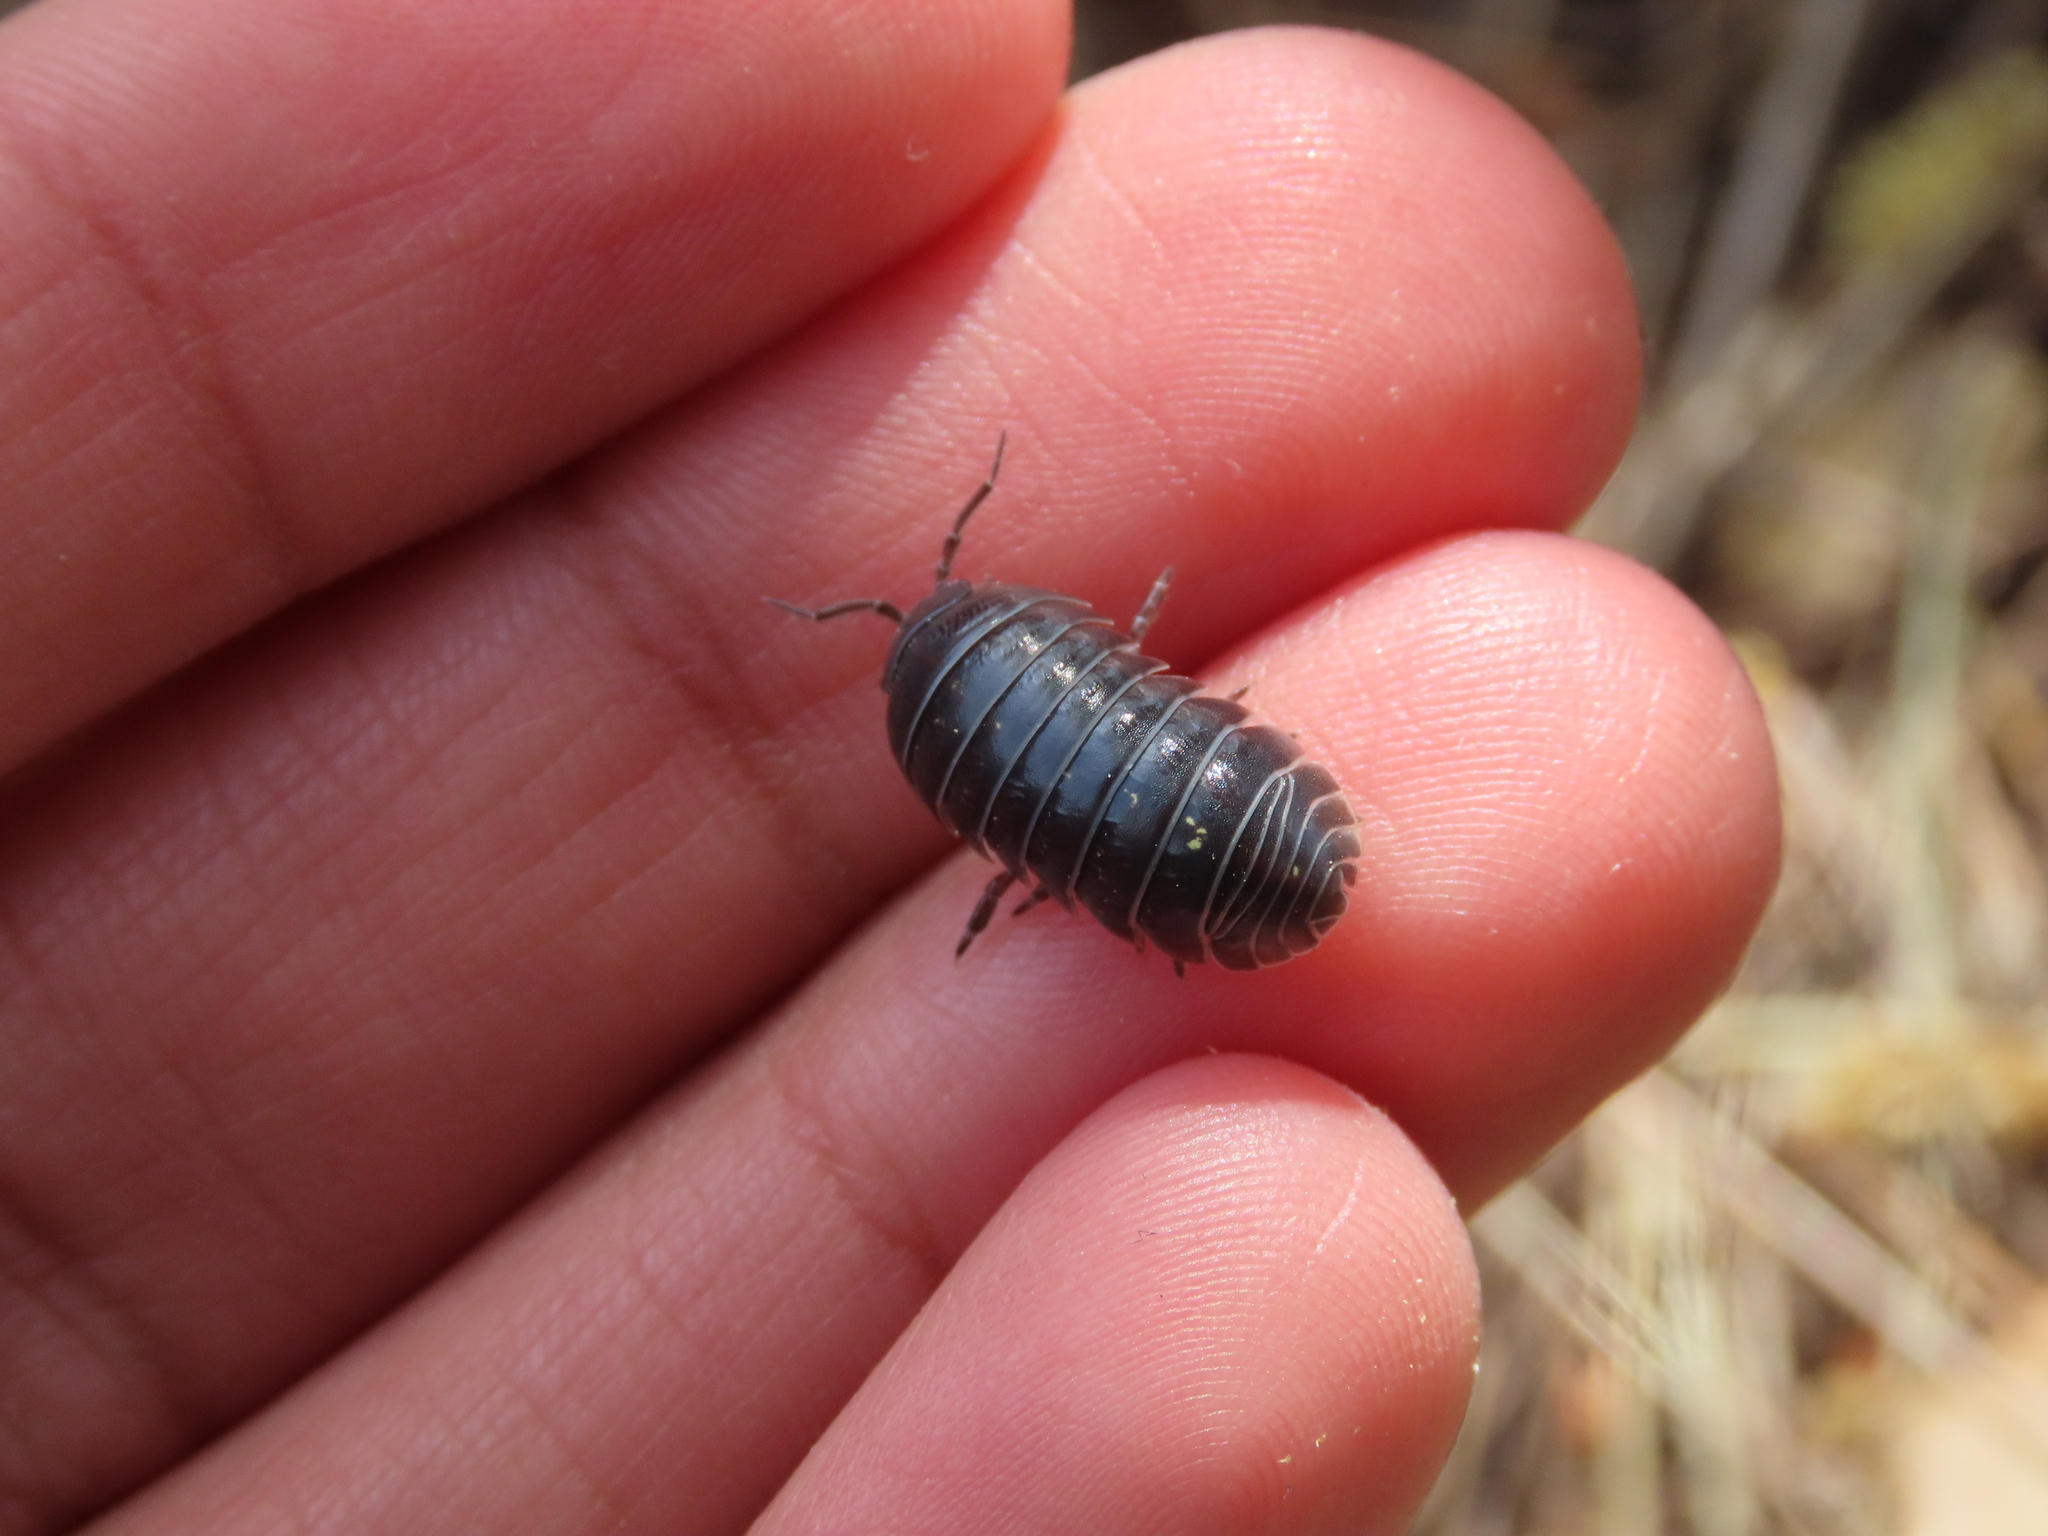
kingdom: Animalia
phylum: Arthropoda
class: Malacostraca
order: Isopoda
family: Armadillidiidae
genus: Armadillidium
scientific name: Armadillidium vulgare
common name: Common pill woodlouse
